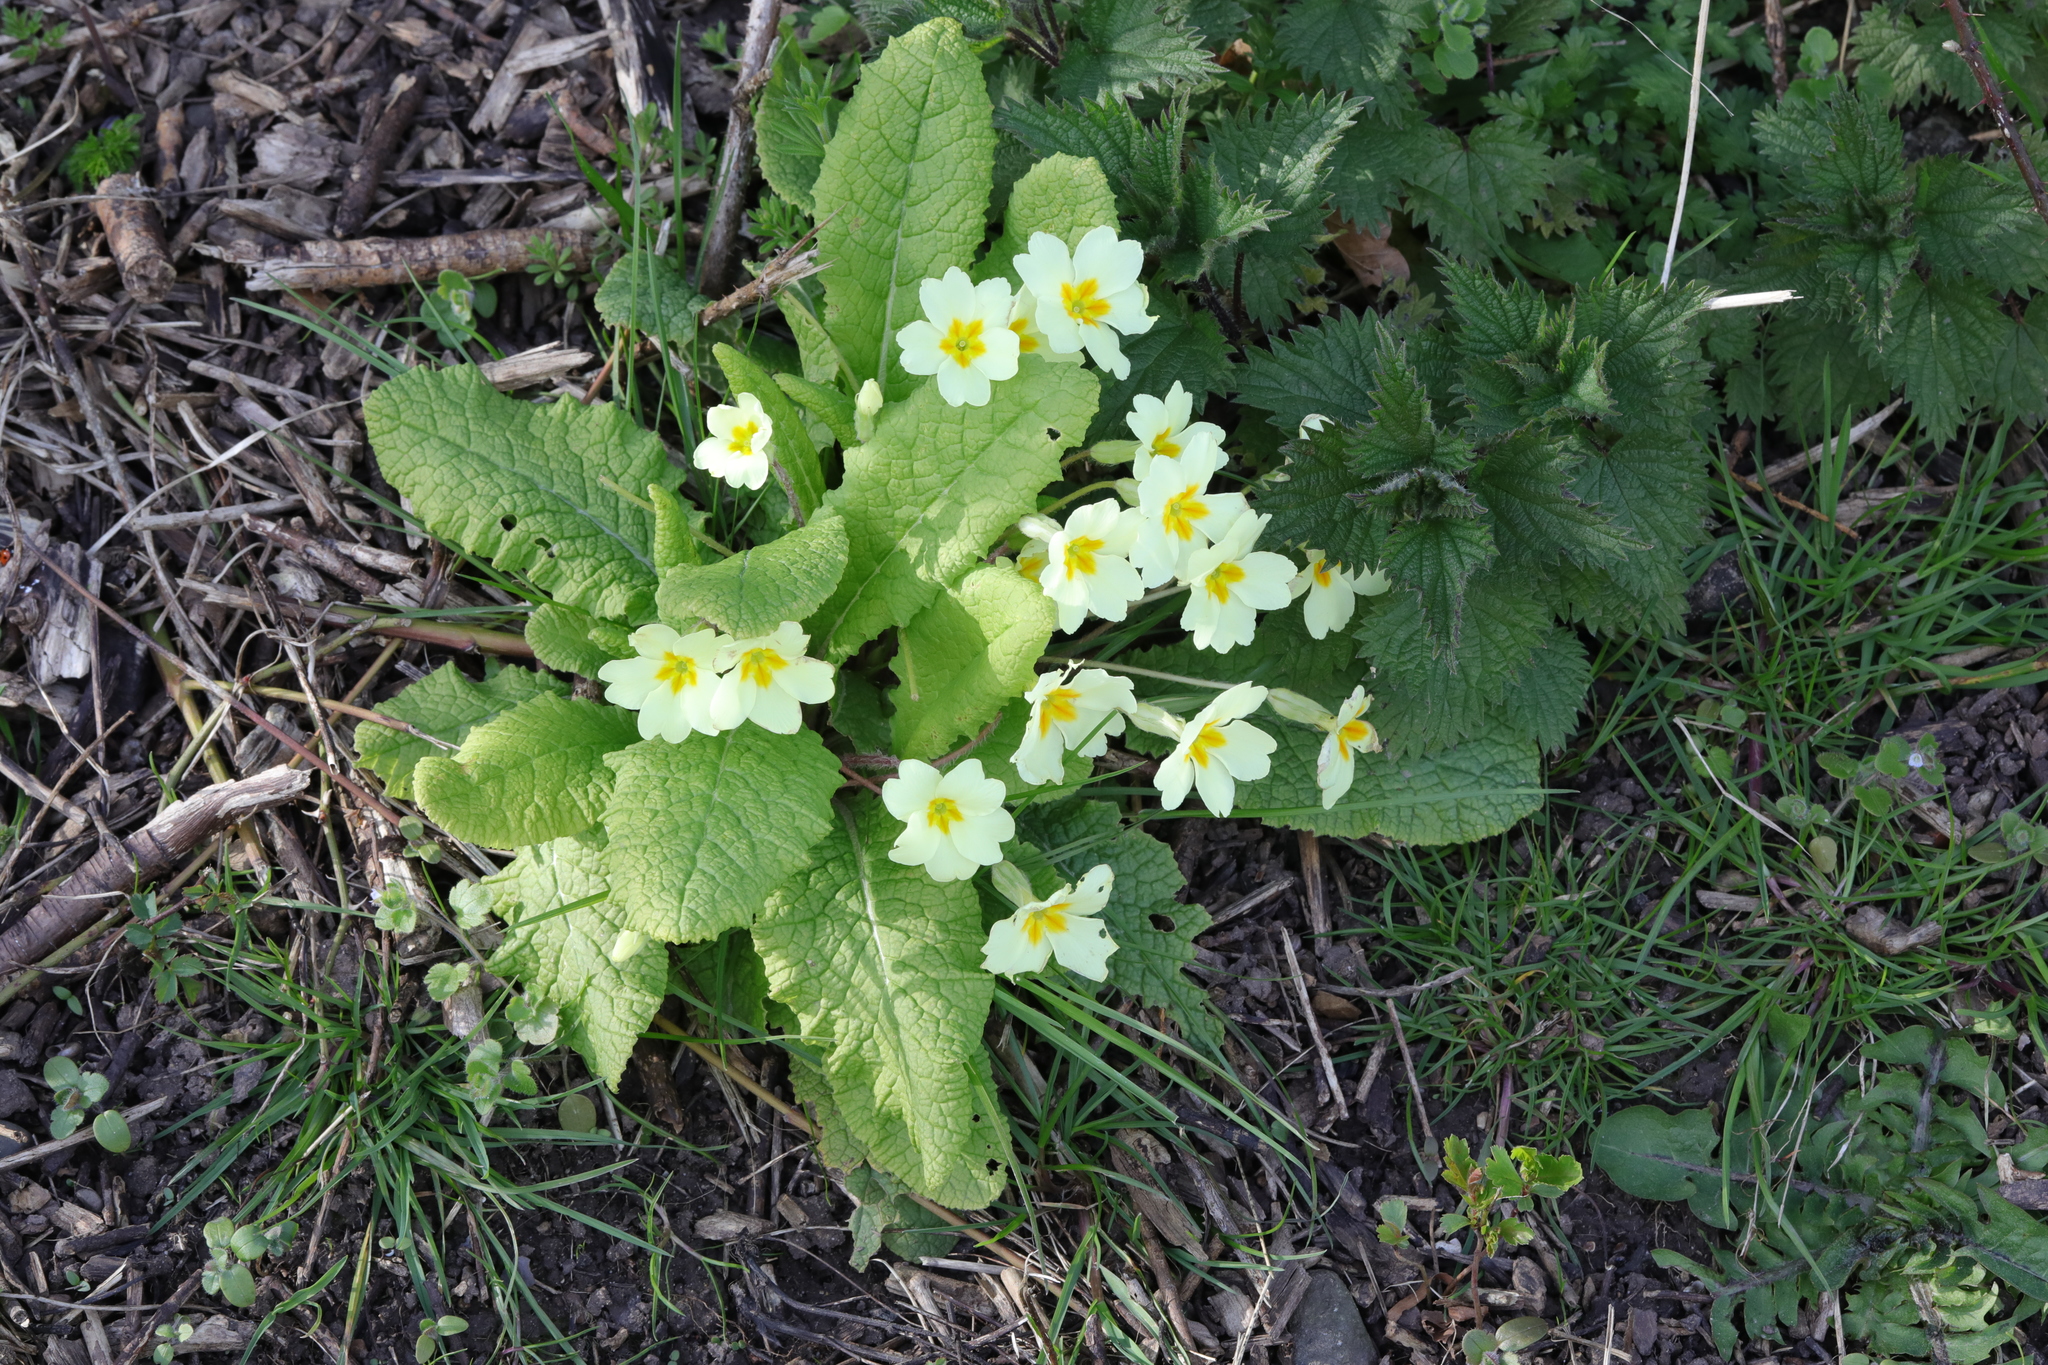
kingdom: Plantae
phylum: Tracheophyta
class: Magnoliopsida
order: Ericales
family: Primulaceae
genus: Primula
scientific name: Primula vulgaris
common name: Primrose
